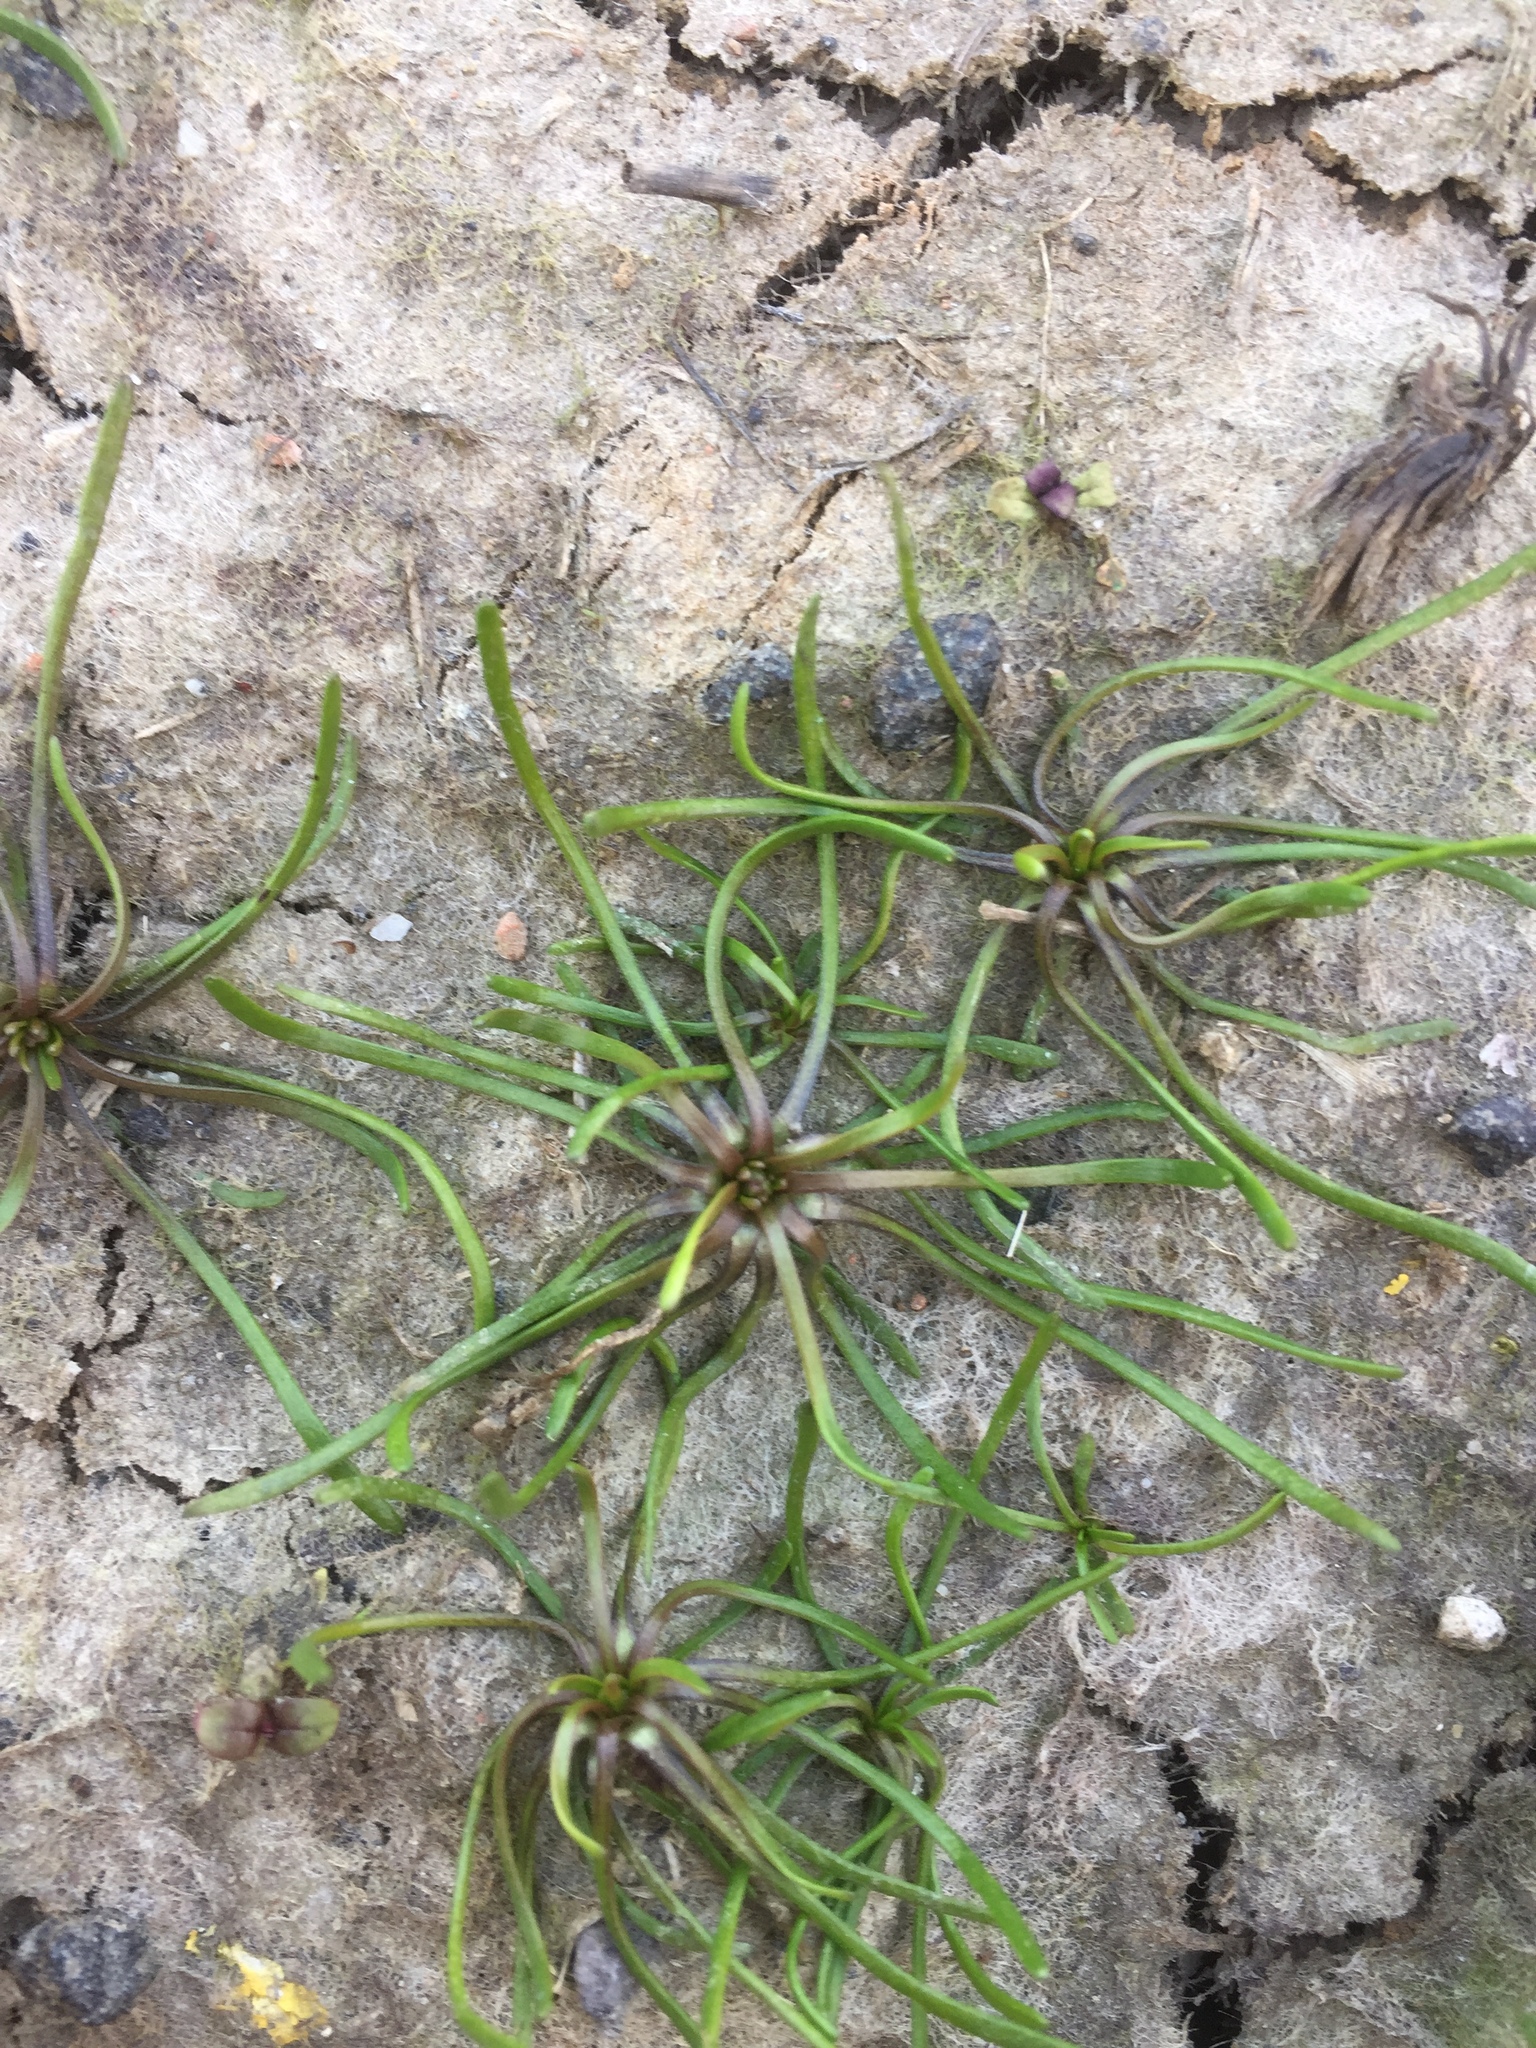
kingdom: Plantae
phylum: Tracheophyta
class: Magnoliopsida
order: Ranunculales
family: Ranunculaceae
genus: Myosurus
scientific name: Myosurus minimus
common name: Mousetail
